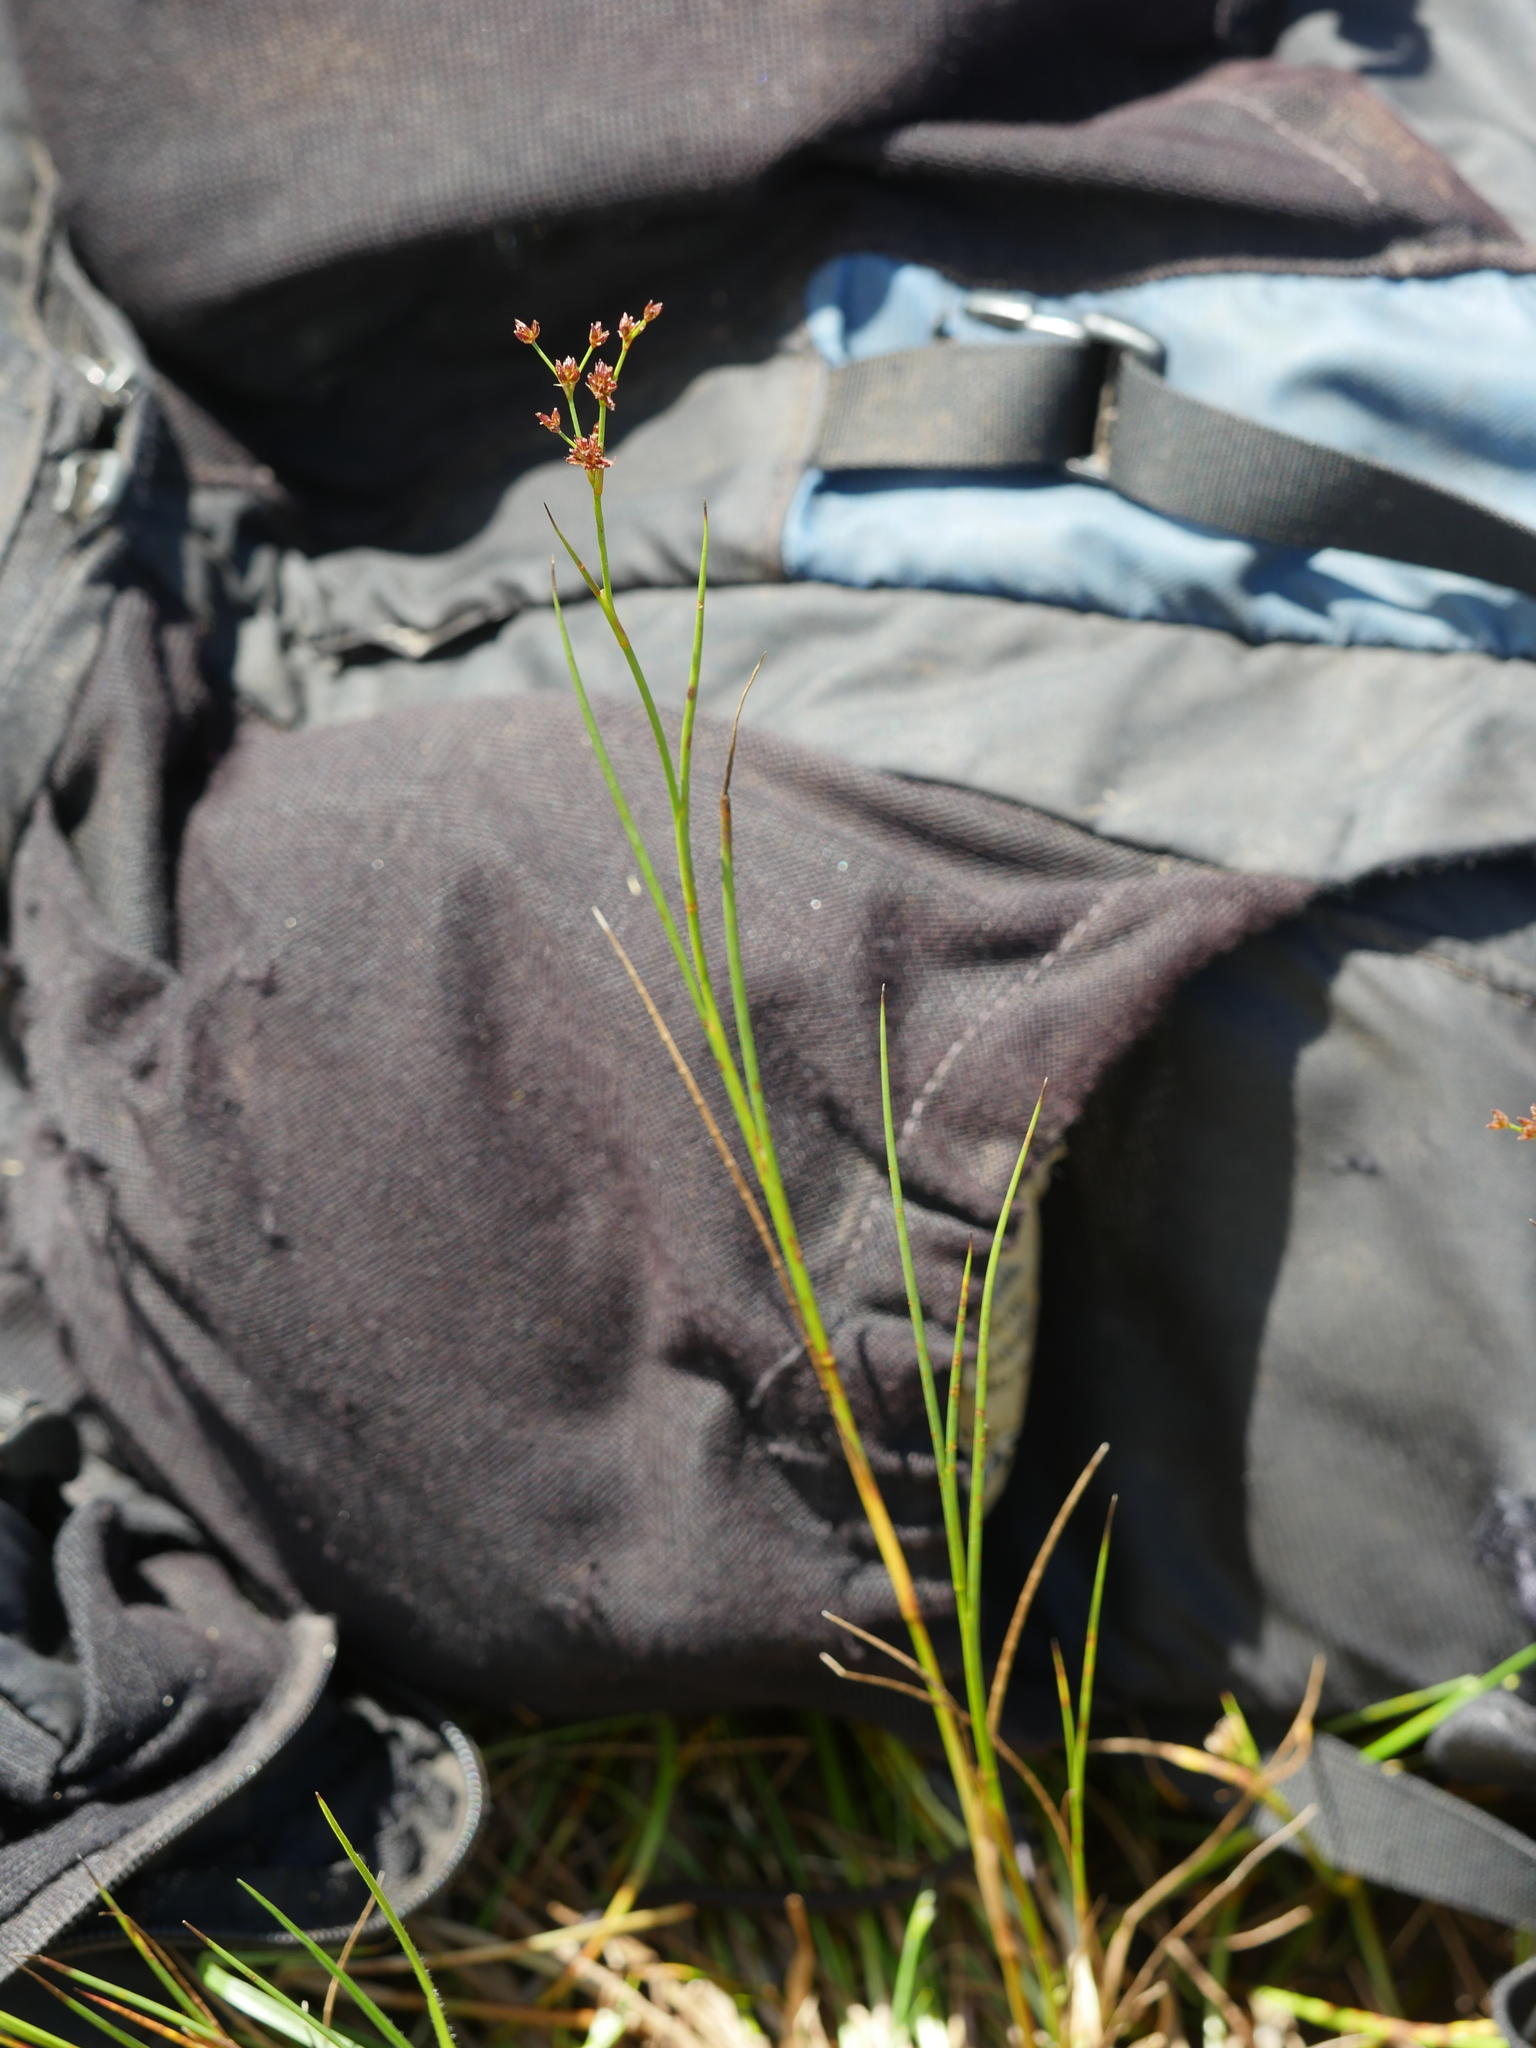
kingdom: Plantae
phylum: Tracheophyta
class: Liliopsida
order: Poales
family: Juncaceae
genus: Juncus
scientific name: Juncus articulatus
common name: Jointed rush
